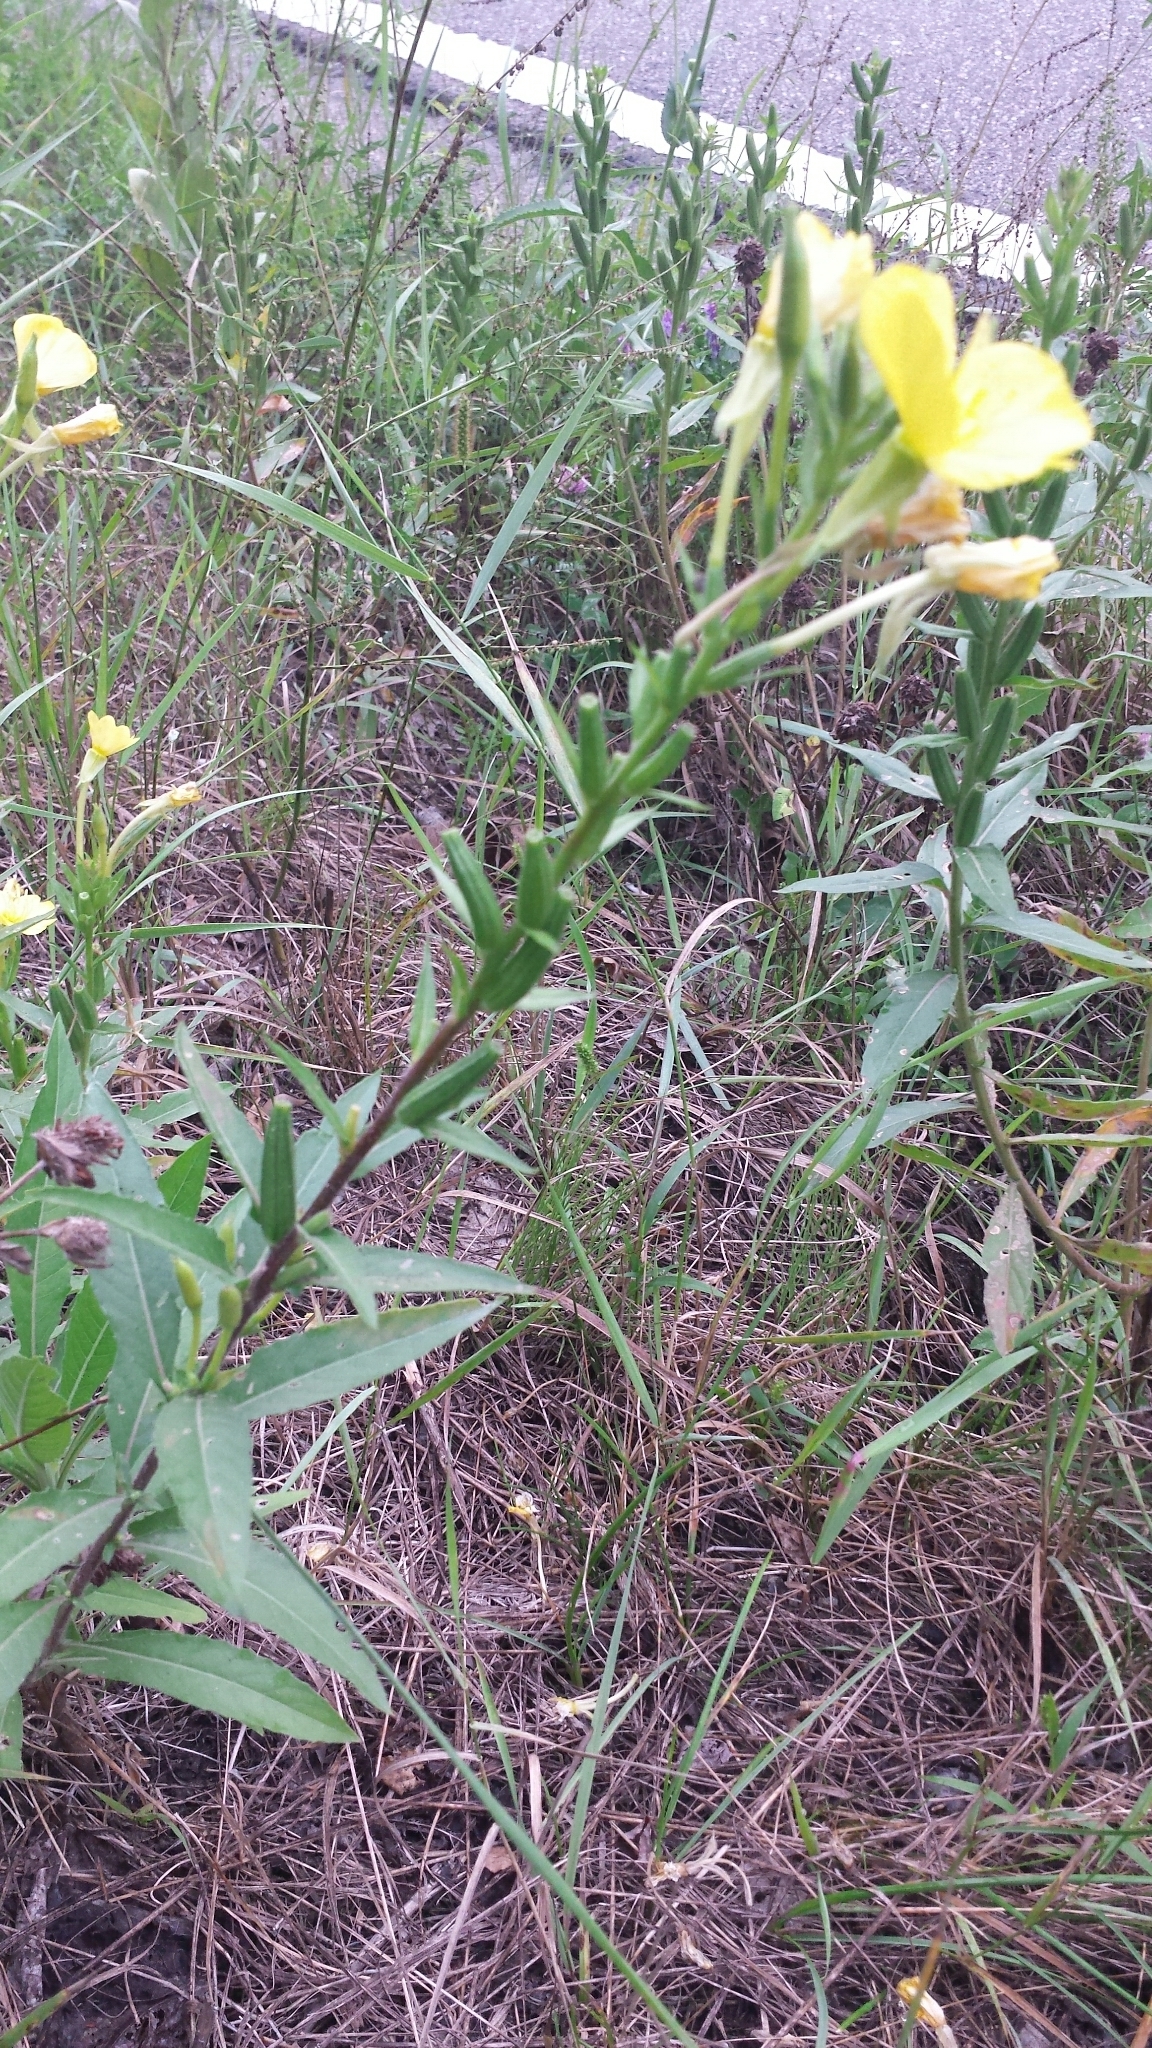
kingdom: Plantae
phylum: Tracheophyta
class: Magnoliopsida
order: Myrtales
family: Onagraceae
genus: Oenothera
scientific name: Oenothera biennis
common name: Common evening-primrose
